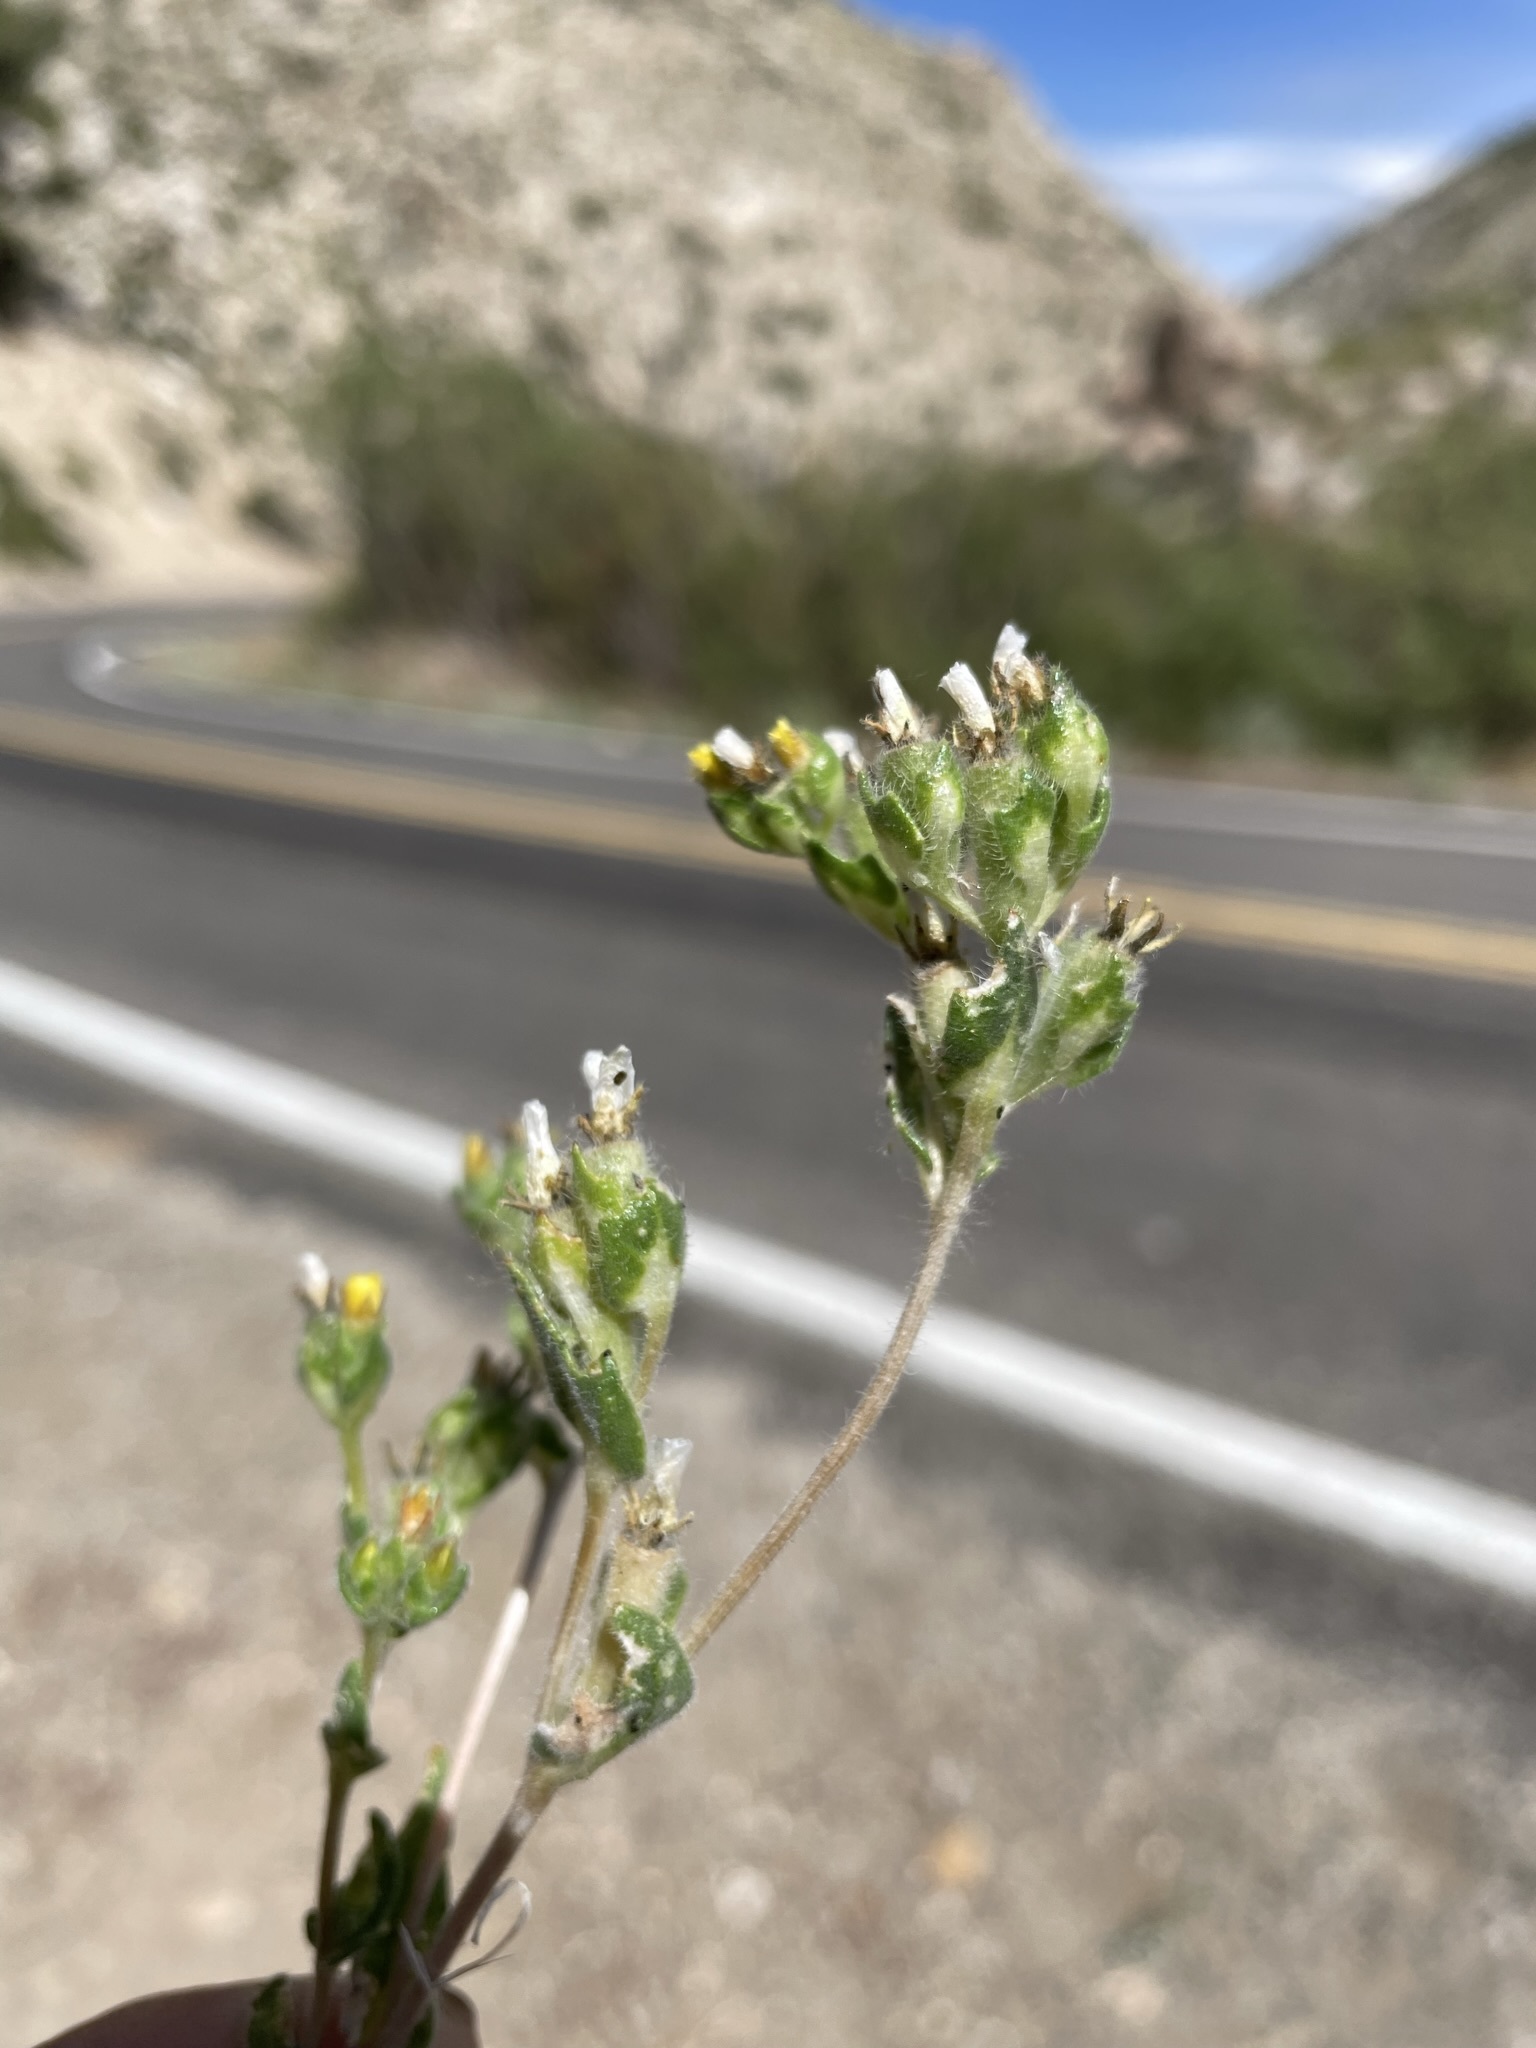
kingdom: Plantae
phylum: Tracheophyta
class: Magnoliopsida
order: Cornales
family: Loasaceae
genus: Mentzelia
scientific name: Mentzelia congesta
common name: Ventana blazingstar
